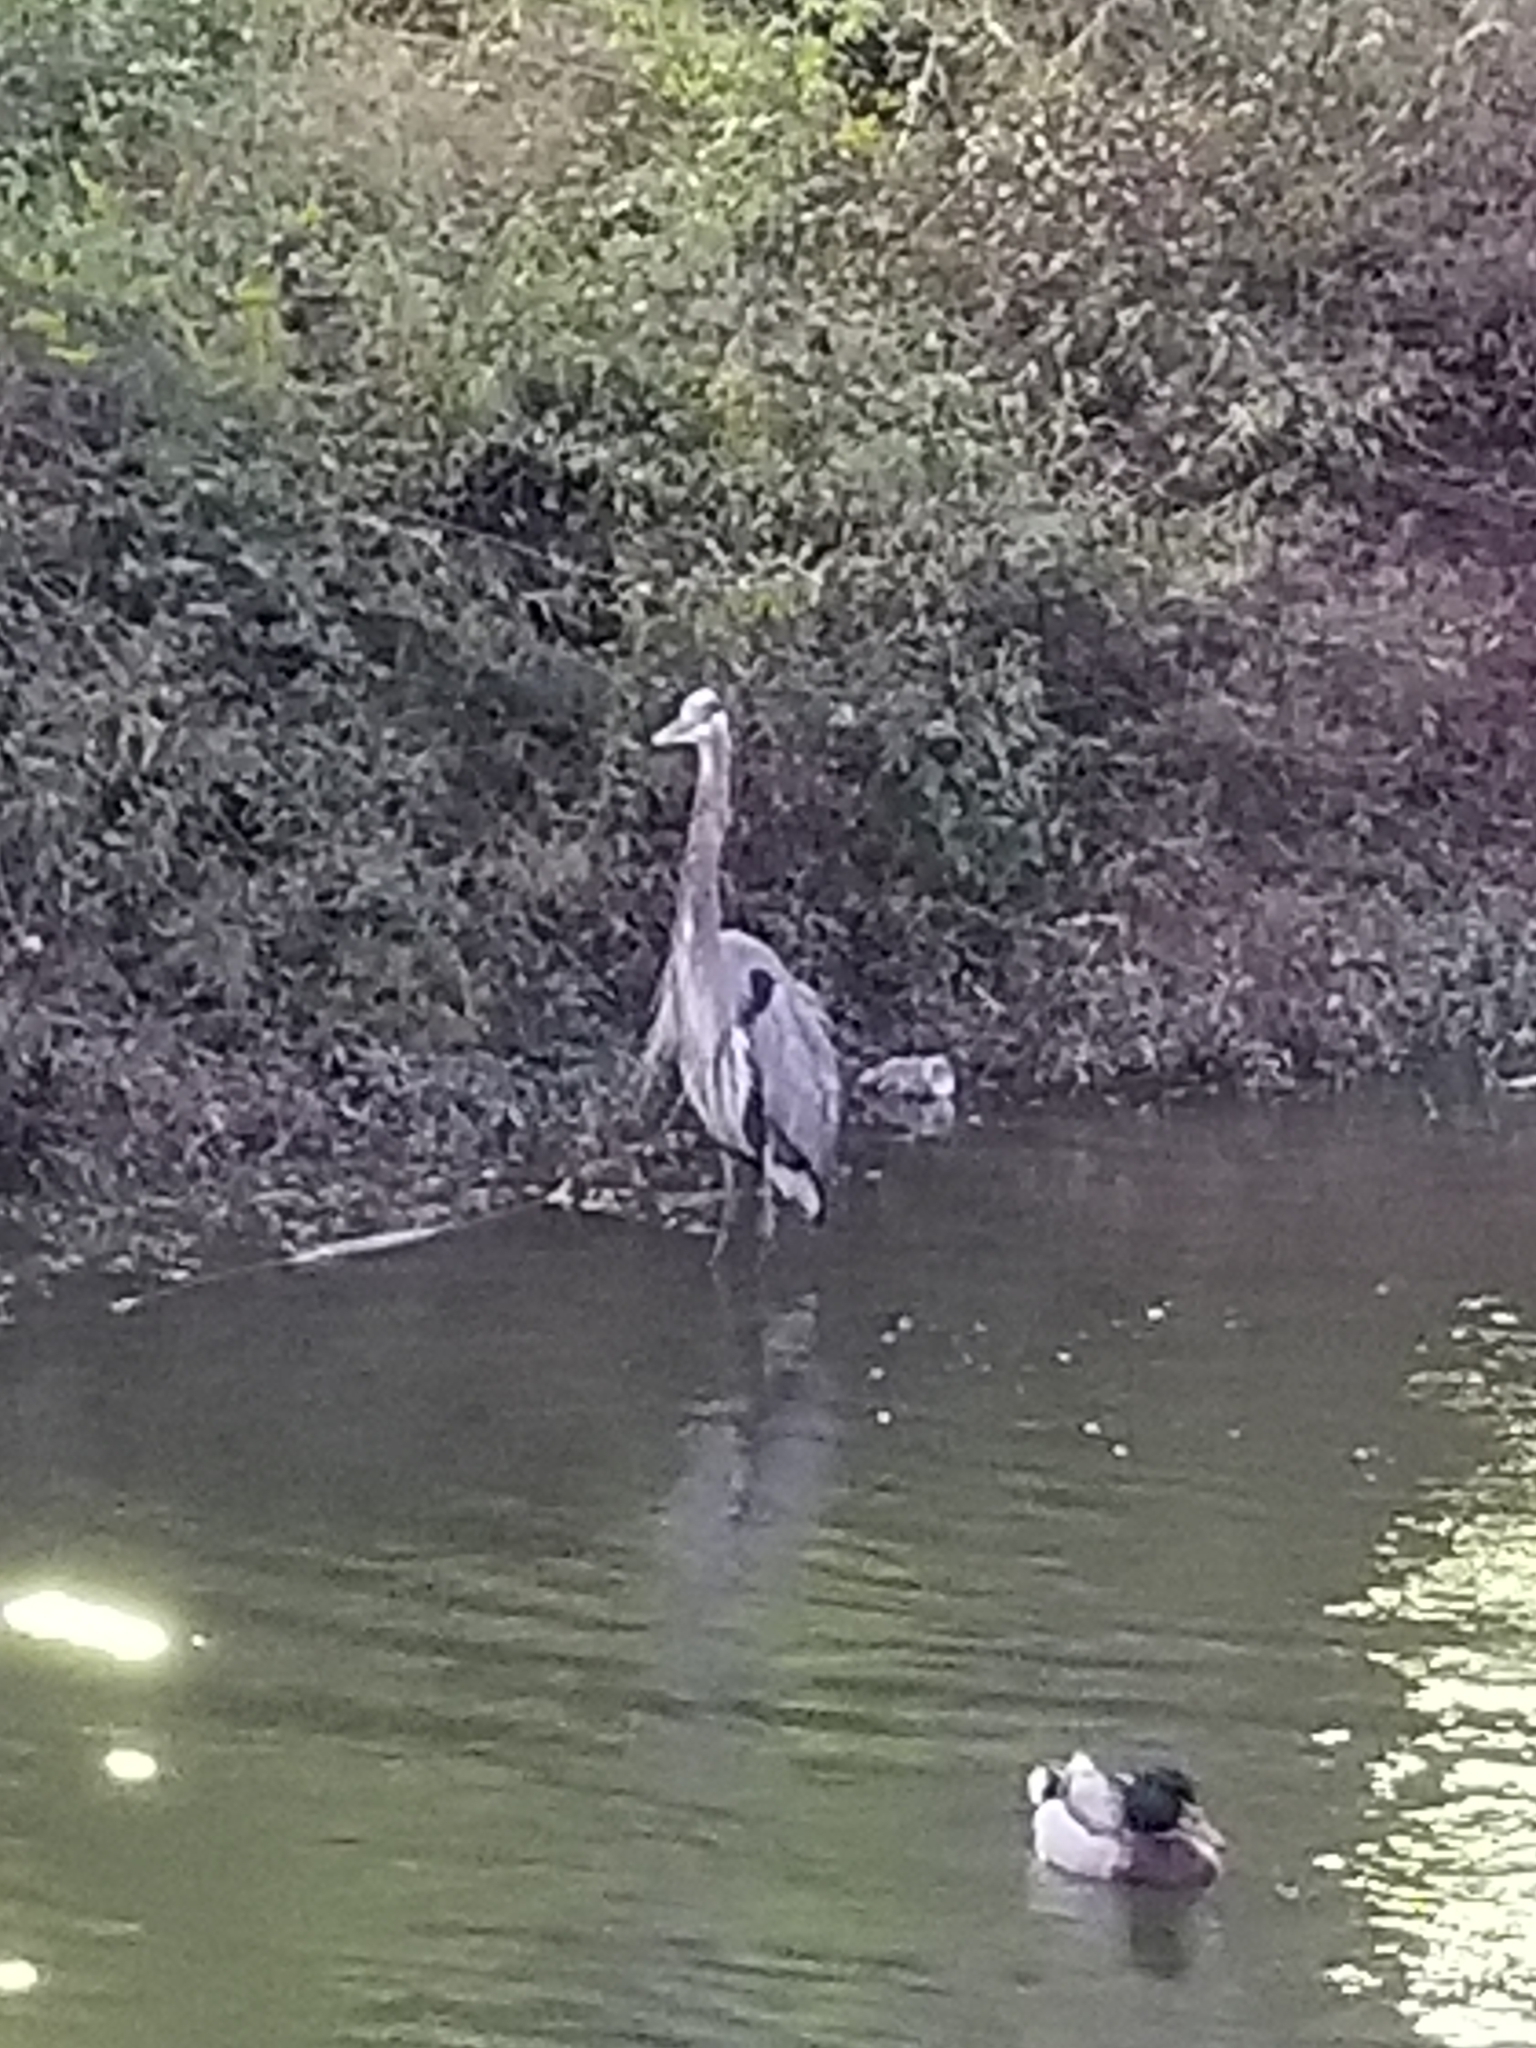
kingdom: Animalia
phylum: Chordata
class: Aves
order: Pelecaniformes
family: Ardeidae
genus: Ardea
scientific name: Ardea herodias
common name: Great blue heron
